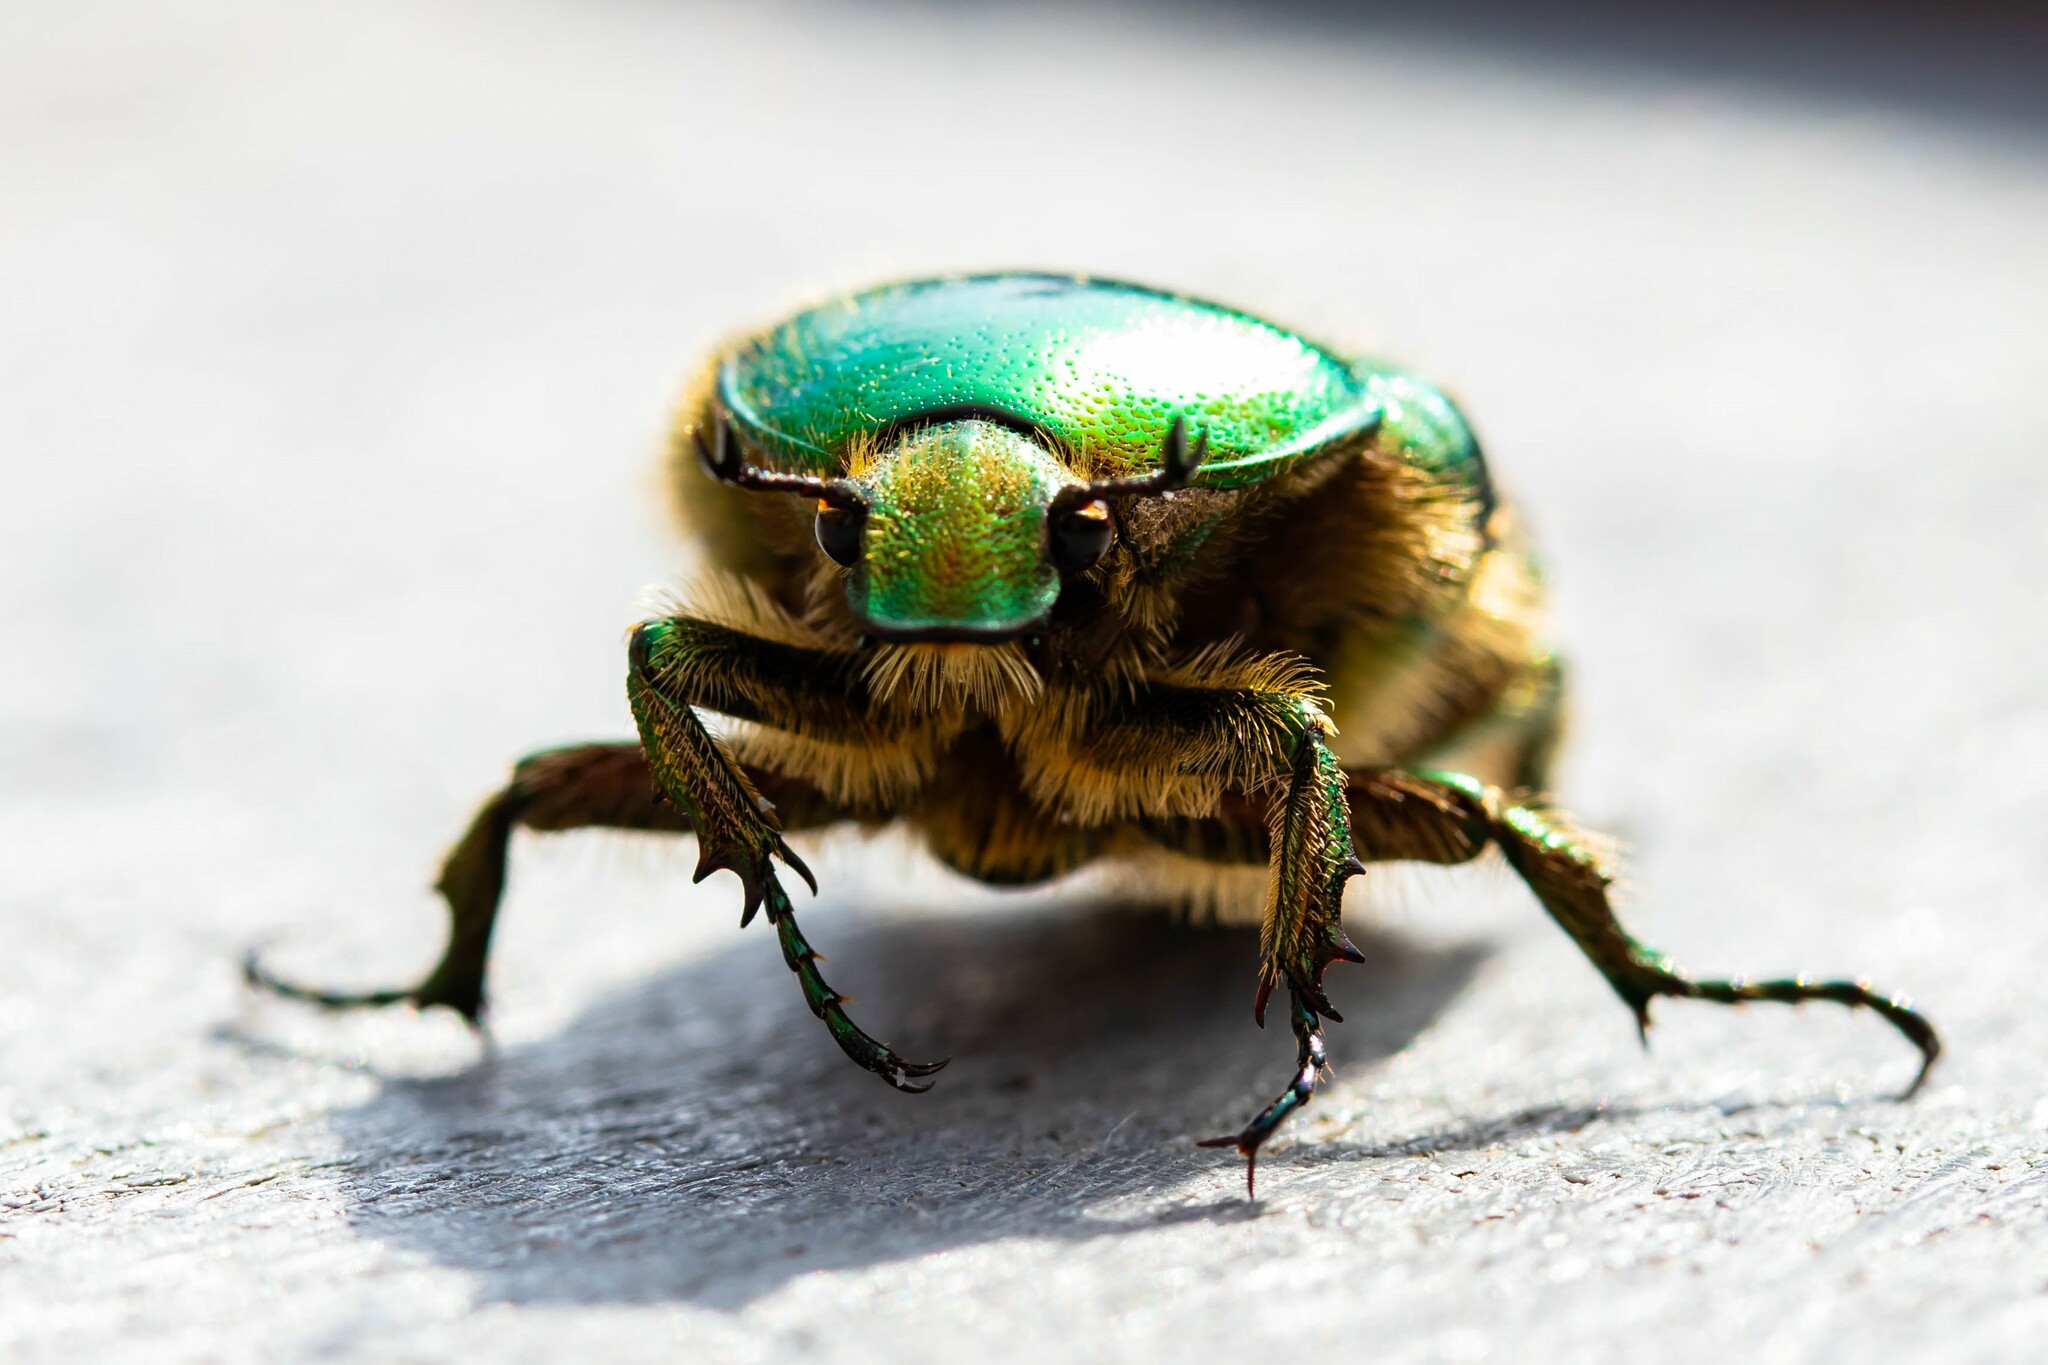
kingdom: Animalia
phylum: Arthropoda
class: Insecta
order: Coleoptera
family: Scarabaeidae
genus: Cetonia
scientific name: Cetonia aurata
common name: Rose chafer
